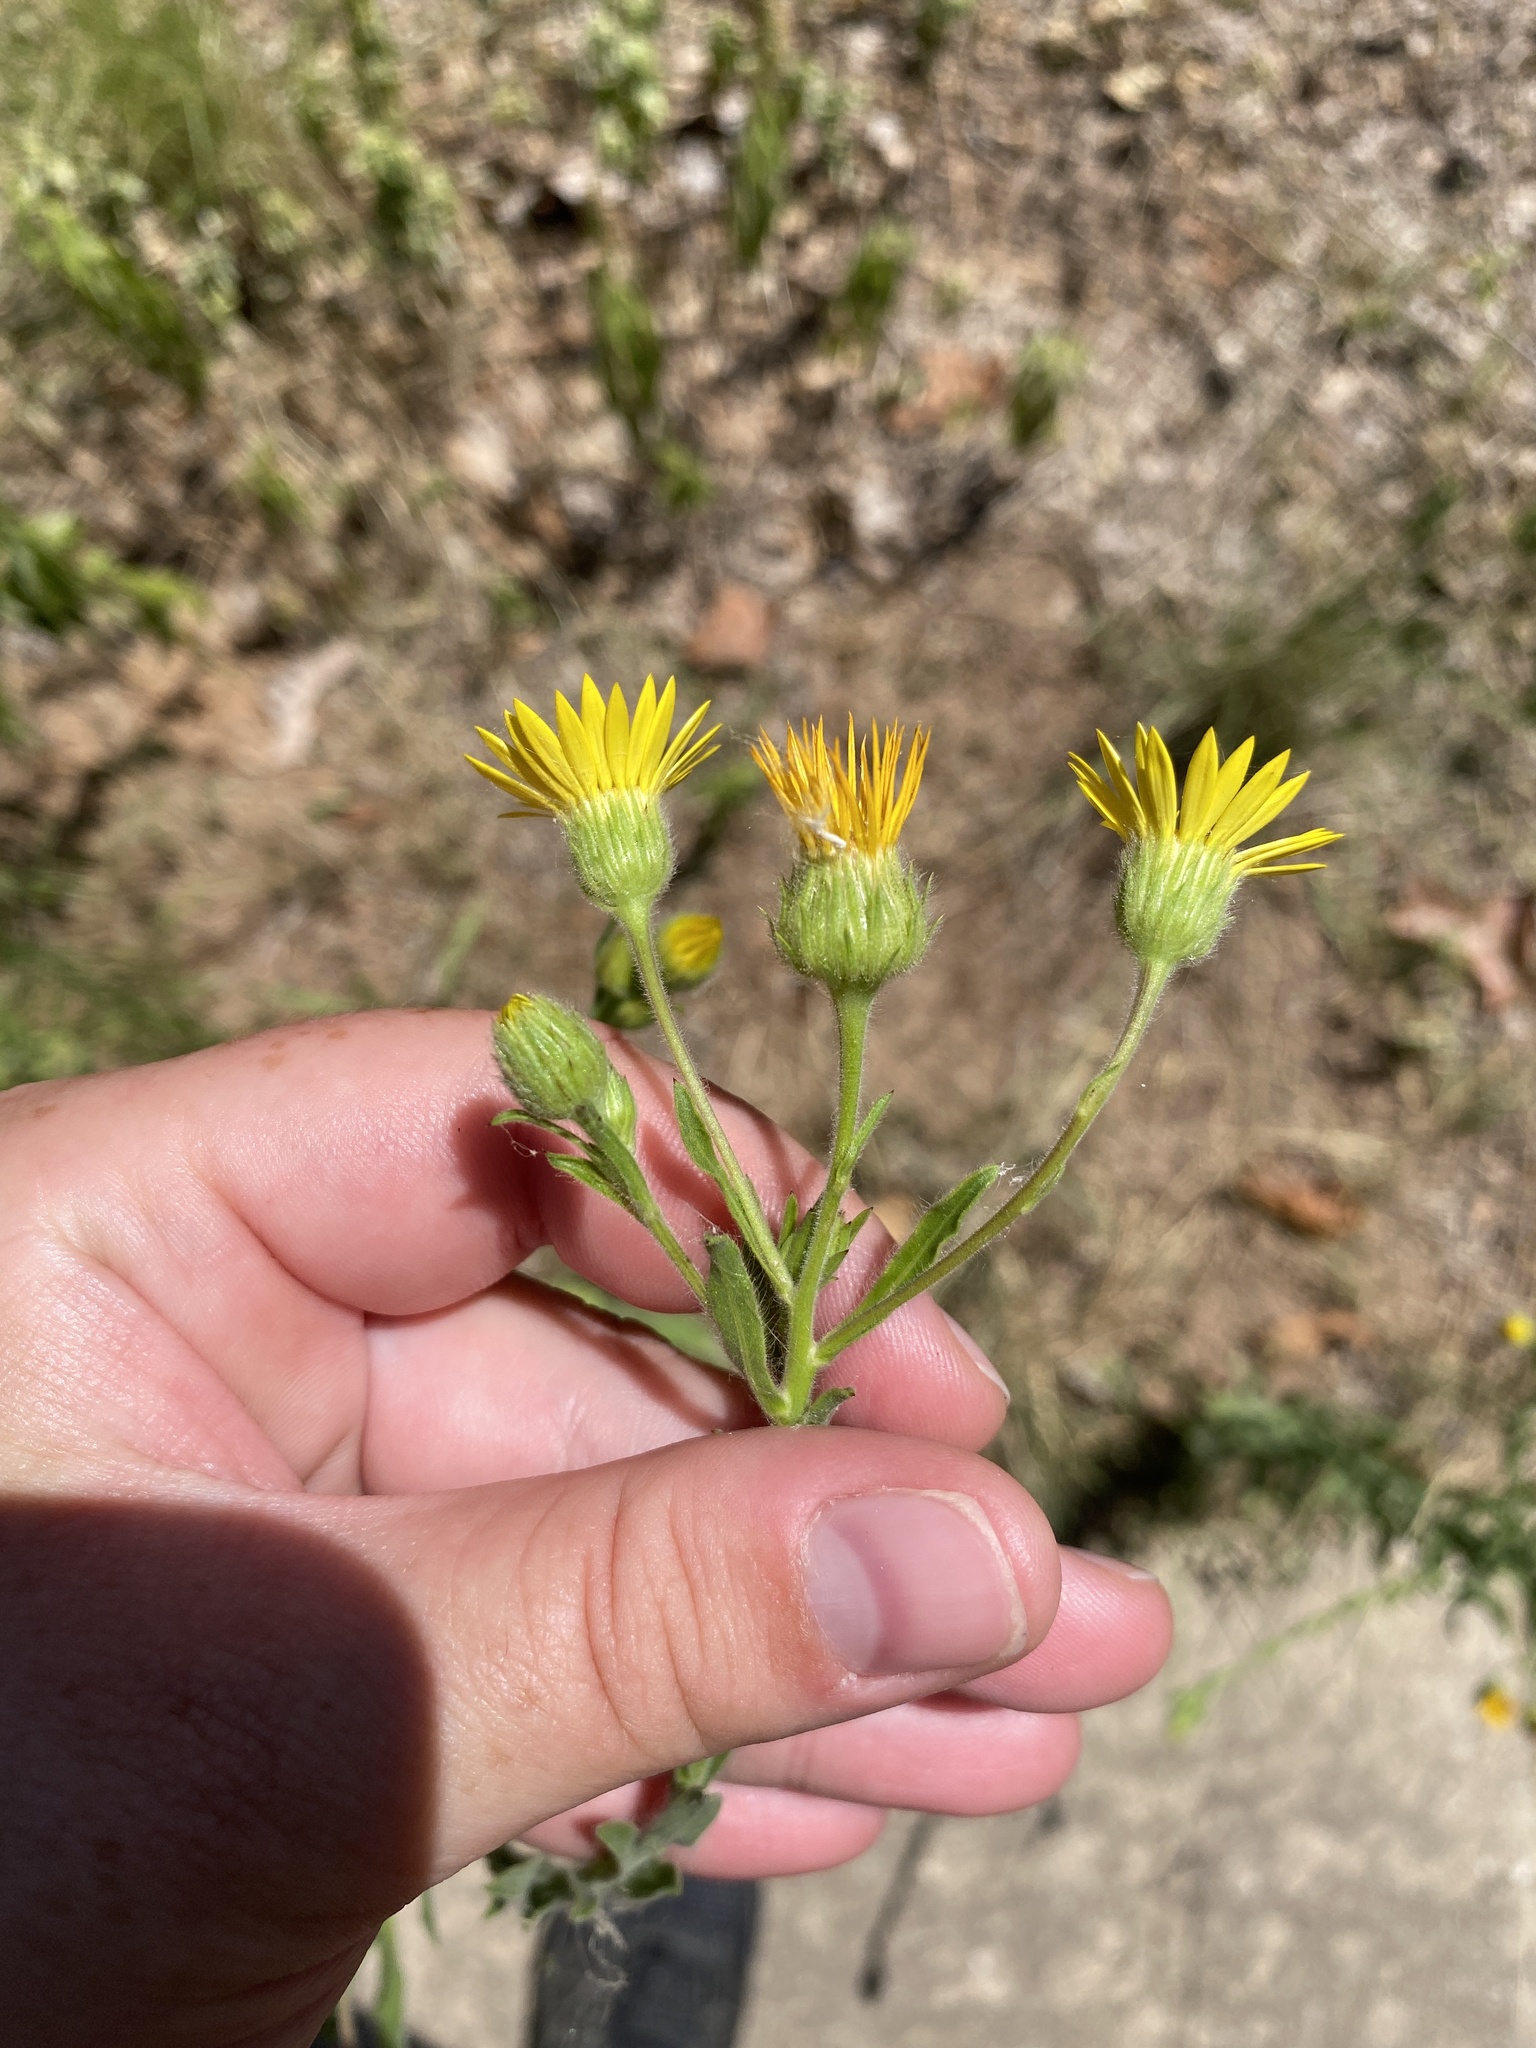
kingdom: Plantae
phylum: Tracheophyta
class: Magnoliopsida
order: Asterales
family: Asteraceae
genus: Bradburia
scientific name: Bradburia pilosa
